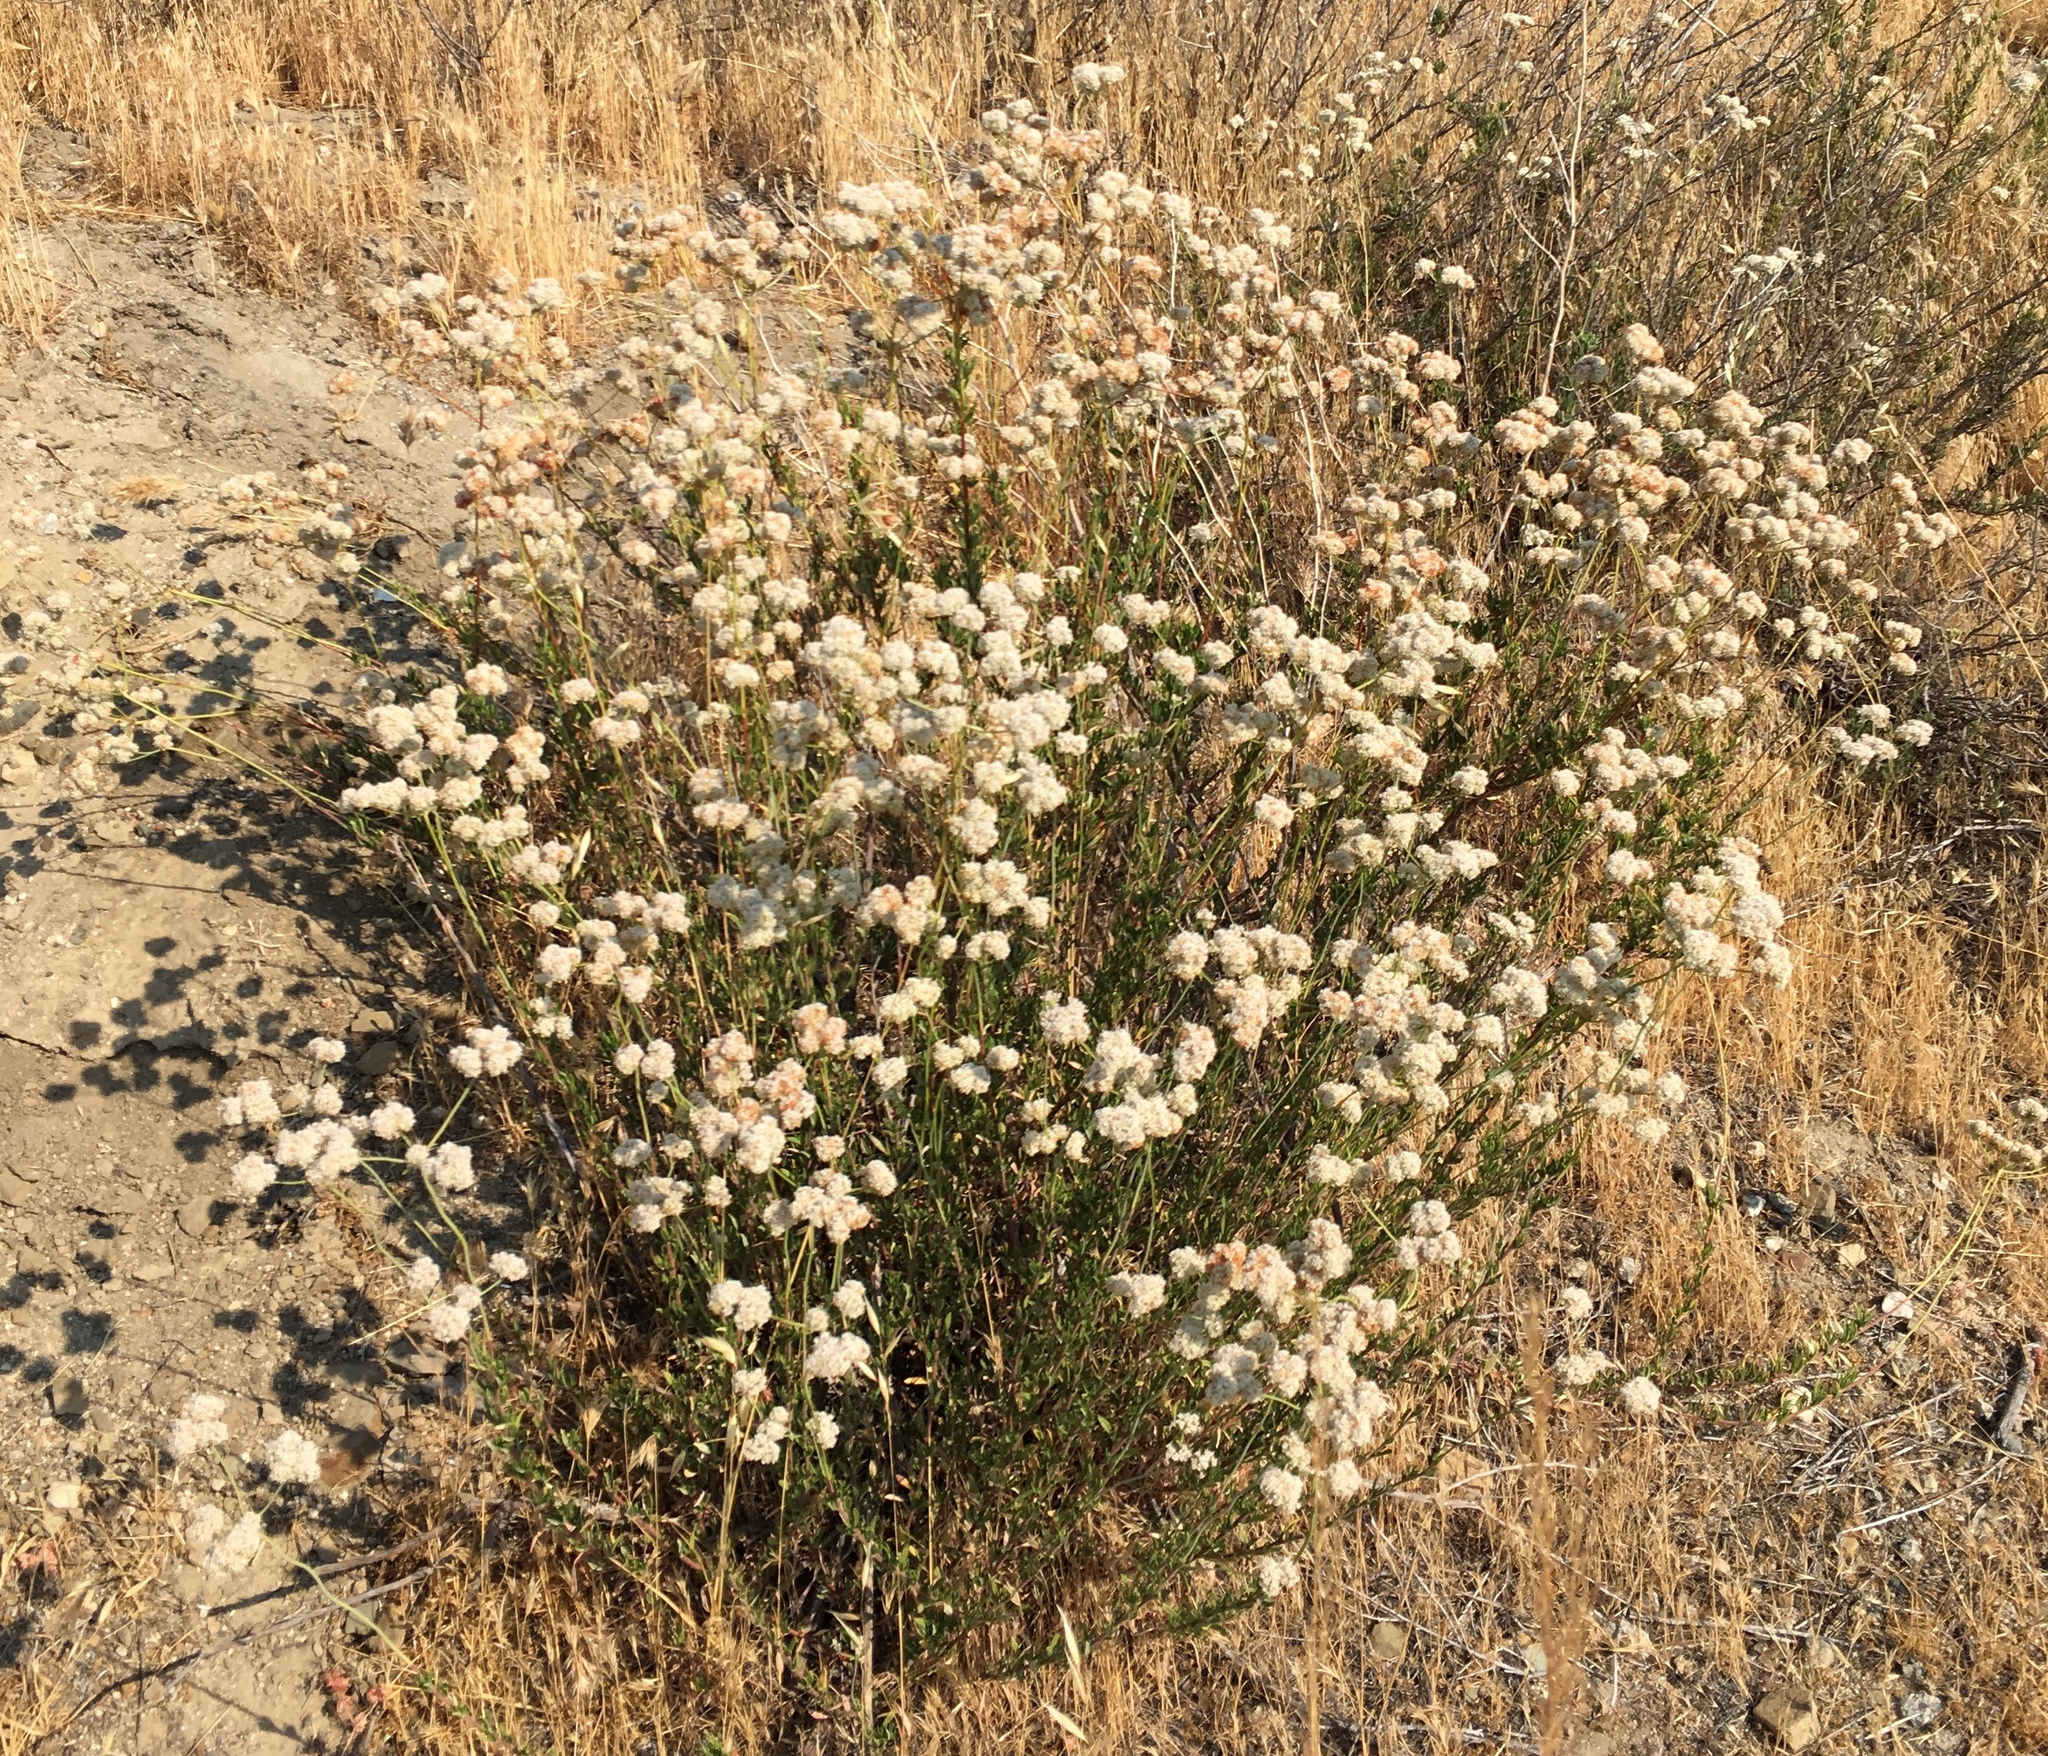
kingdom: Plantae
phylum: Tracheophyta
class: Magnoliopsida
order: Caryophyllales
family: Polygonaceae
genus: Eriogonum
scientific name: Eriogonum fasciculatum
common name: California wild buckwheat
